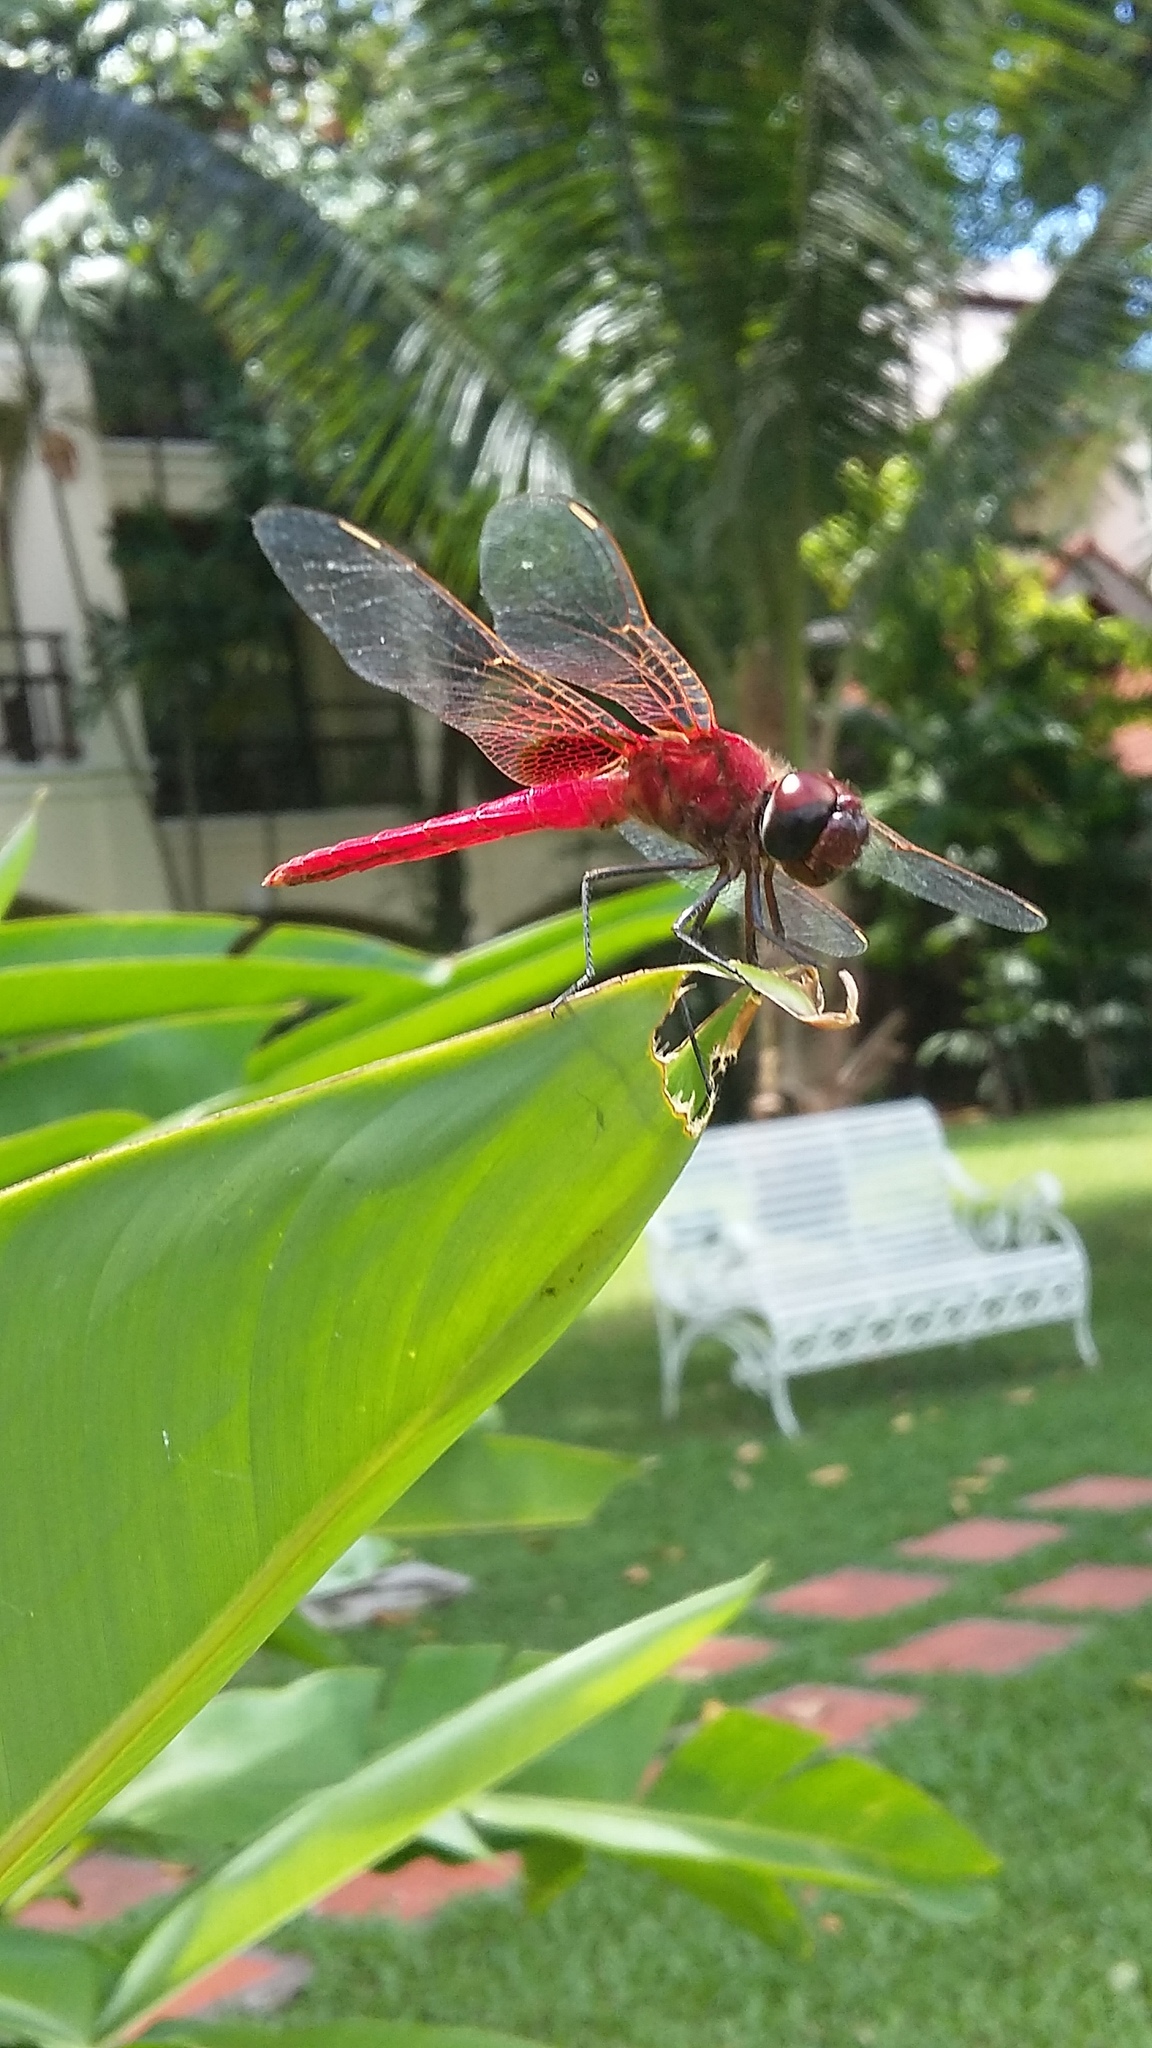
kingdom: Animalia
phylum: Arthropoda
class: Insecta
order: Odonata
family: Libellulidae
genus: Crocothemis
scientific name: Crocothemis servilia
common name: Scarlet skimmer
